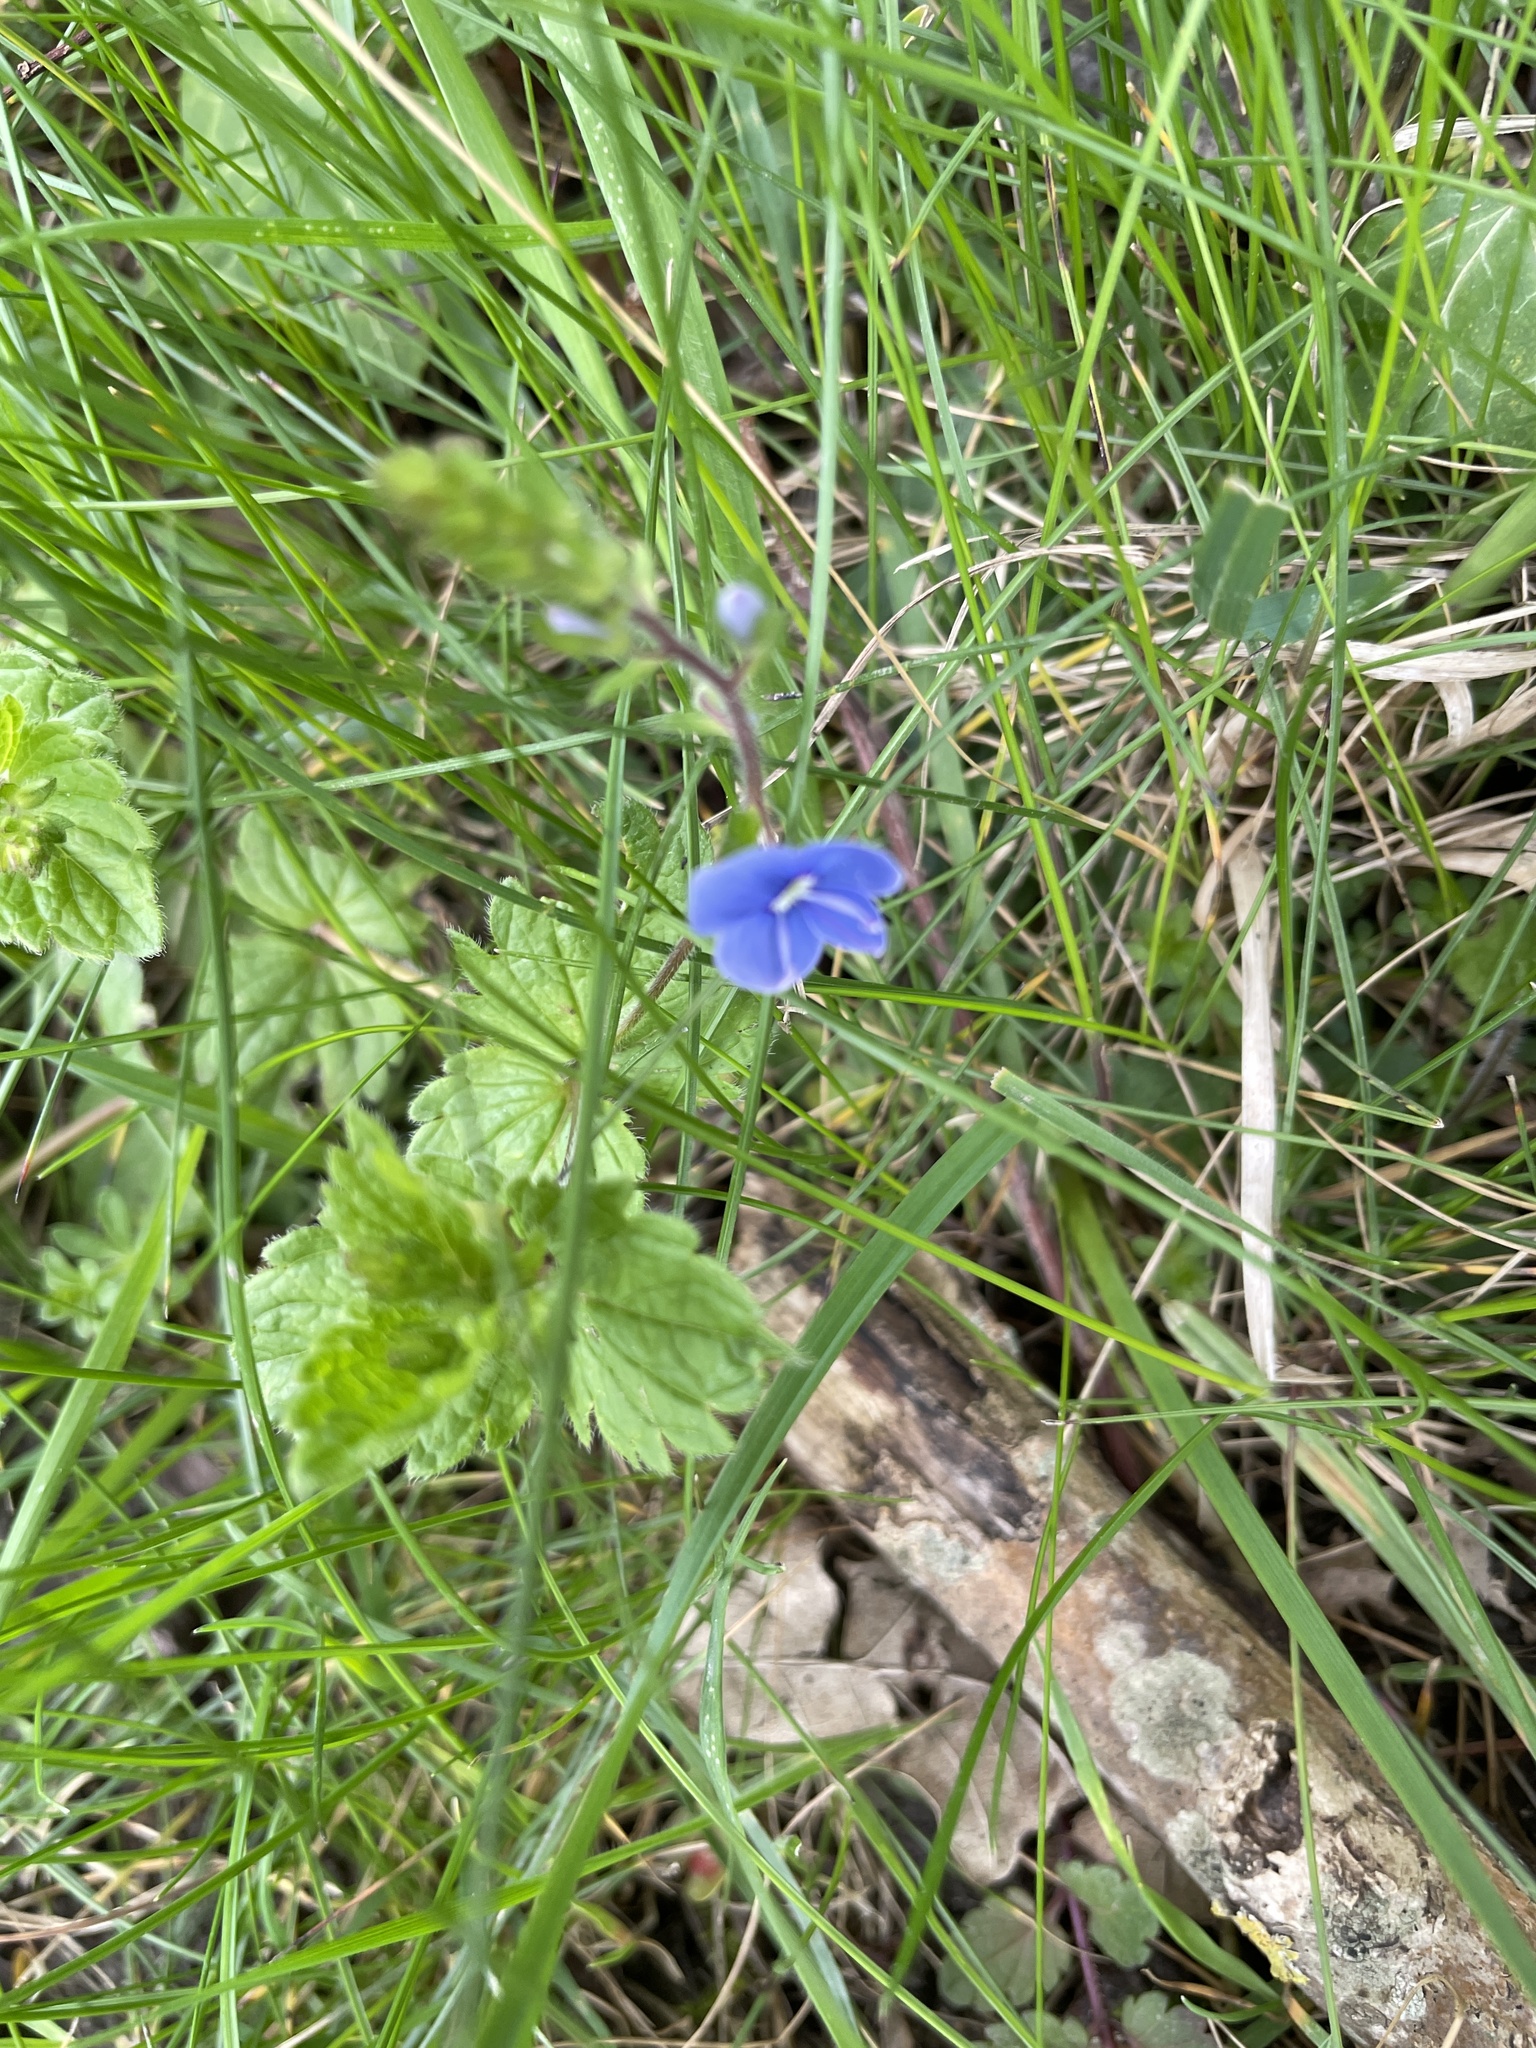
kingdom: Plantae
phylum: Tracheophyta
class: Magnoliopsida
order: Lamiales
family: Plantaginaceae
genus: Veronica
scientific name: Veronica chamaedrys
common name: Germander speedwell
